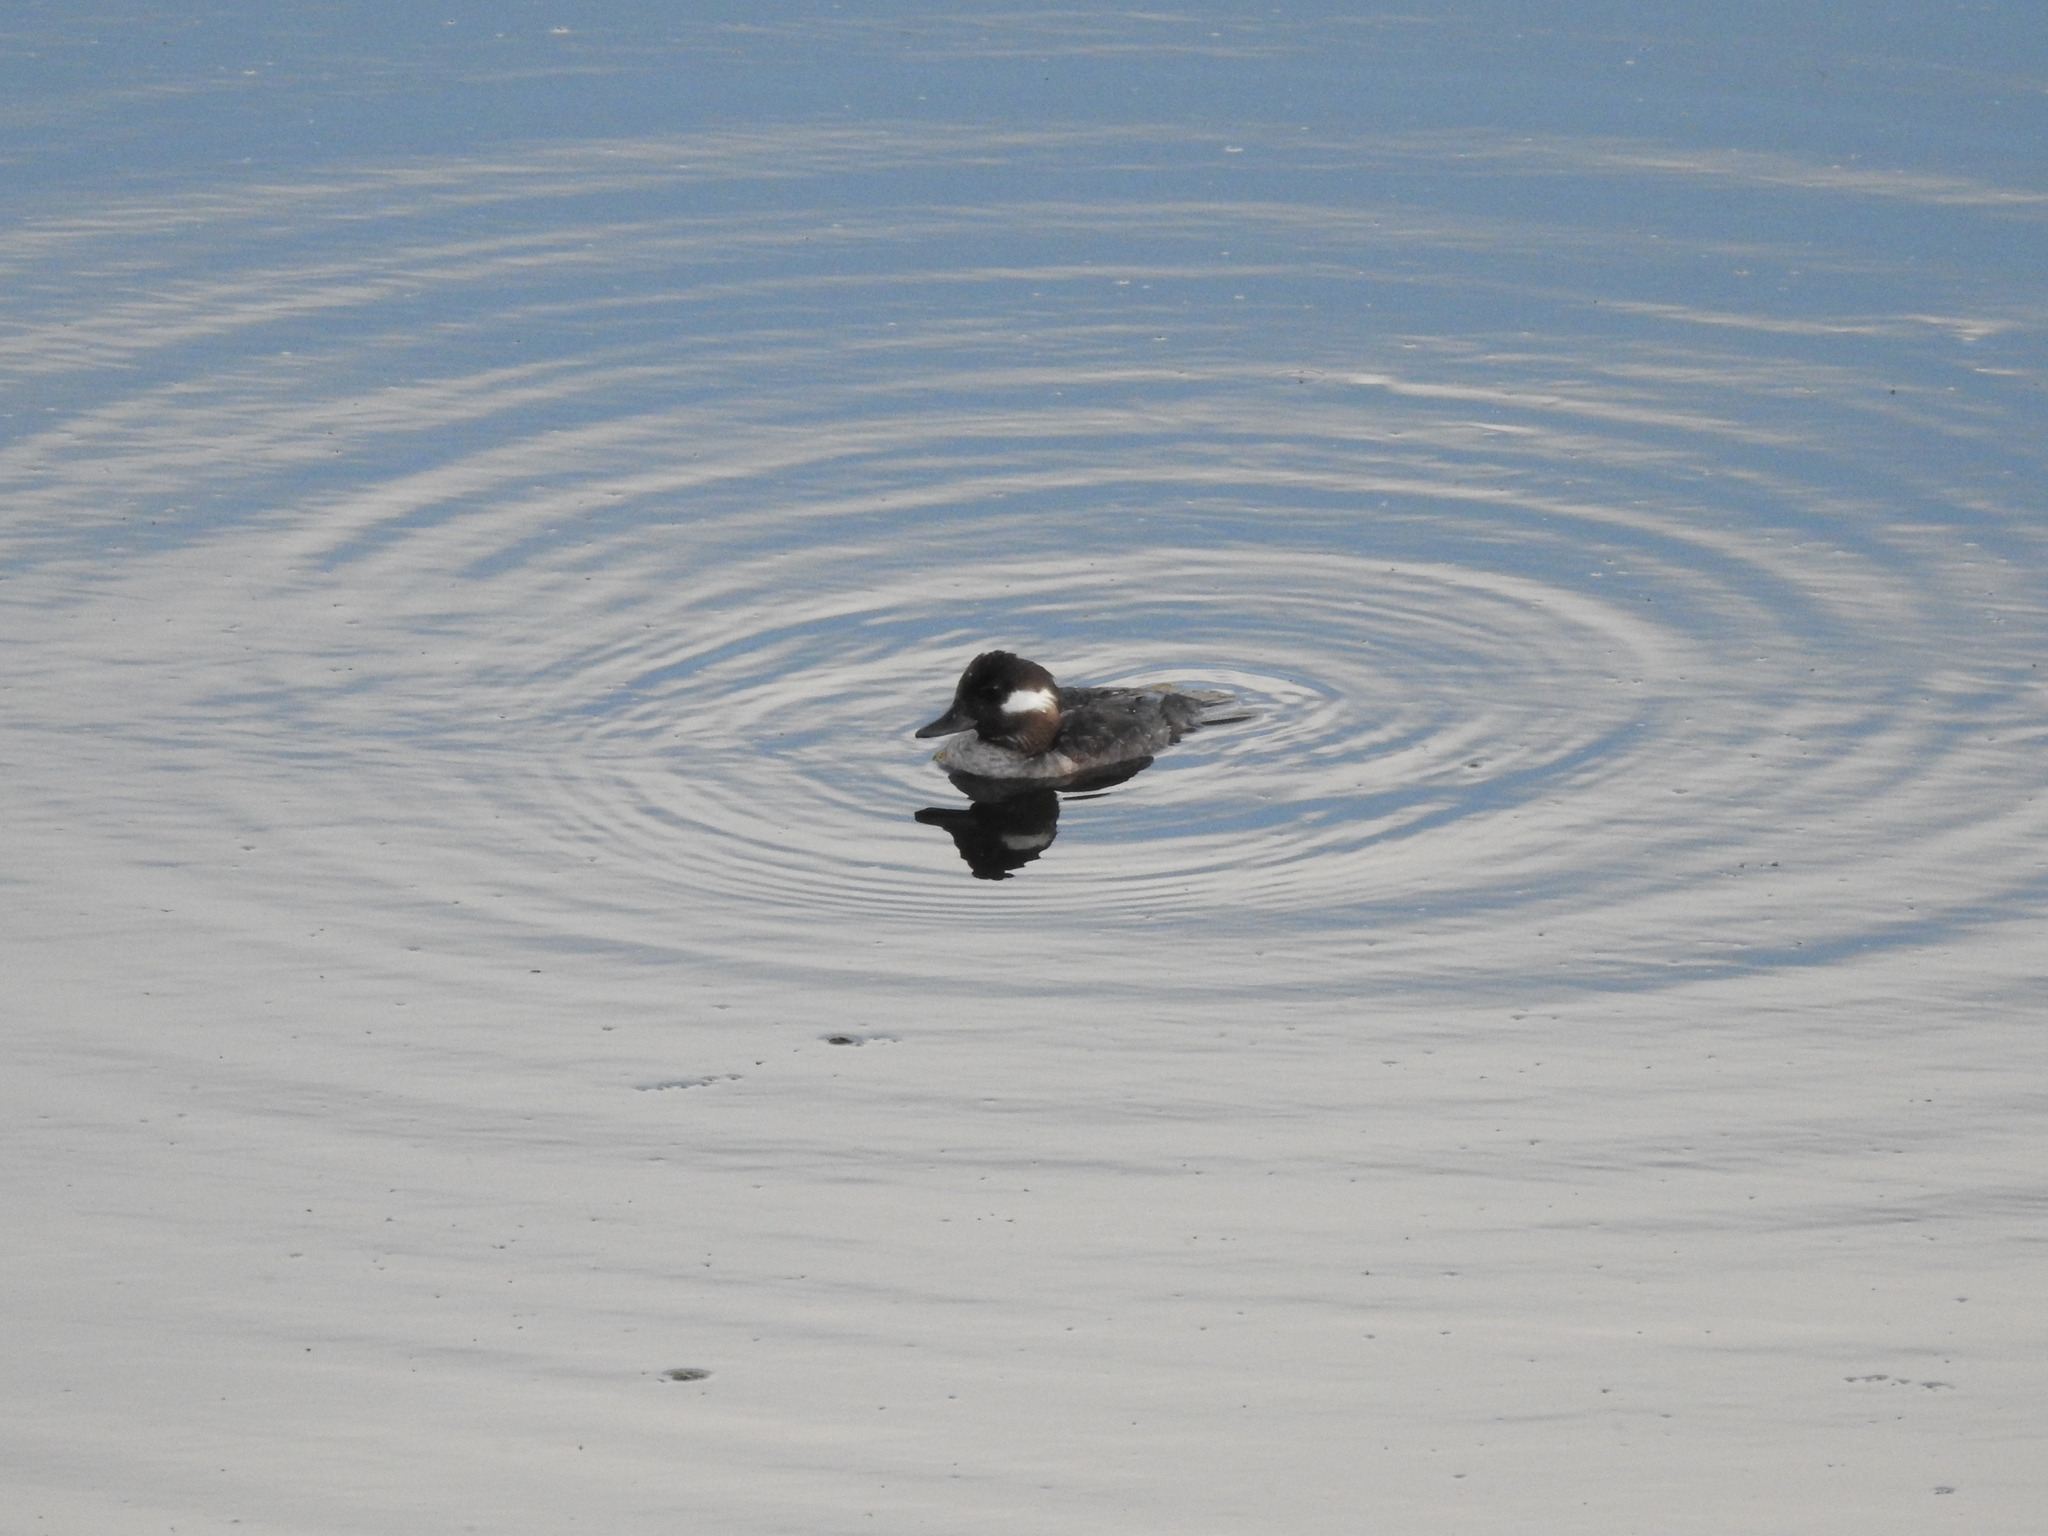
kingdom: Animalia
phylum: Chordata
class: Aves
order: Anseriformes
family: Anatidae
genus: Bucephala
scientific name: Bucephala albeola
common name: Bufflehead
